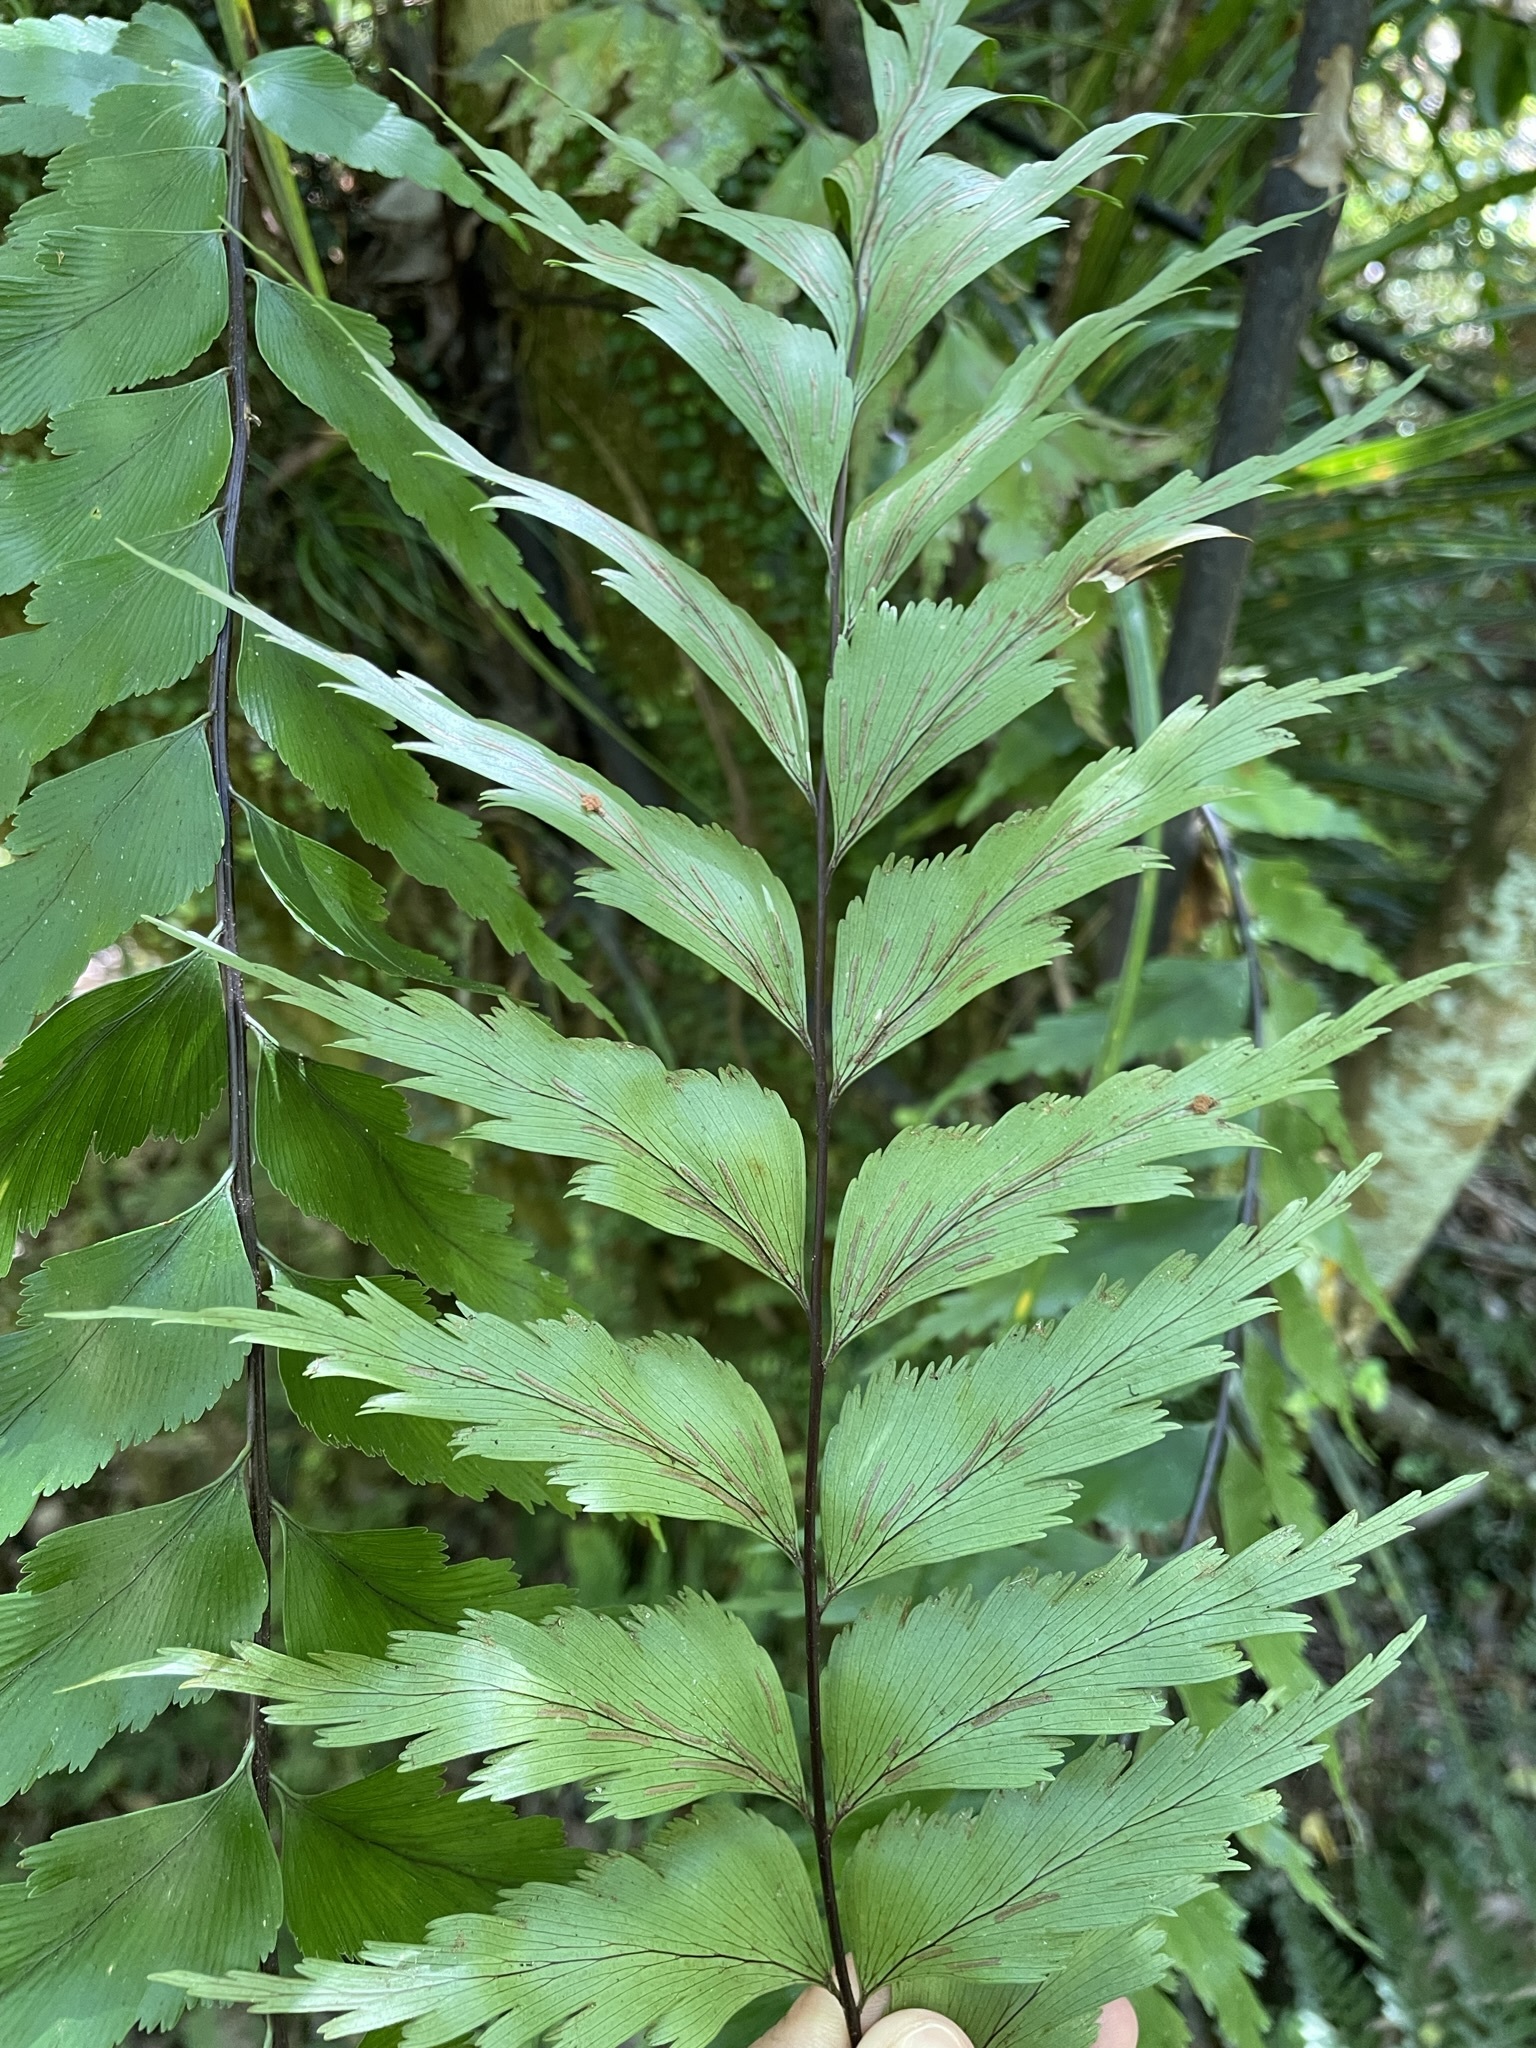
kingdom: Plantae
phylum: Tracheophyta
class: Polypodiopsida
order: Polypodiales
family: Aspleniaceae
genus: Asplenium
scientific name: Asplenium polyodon
